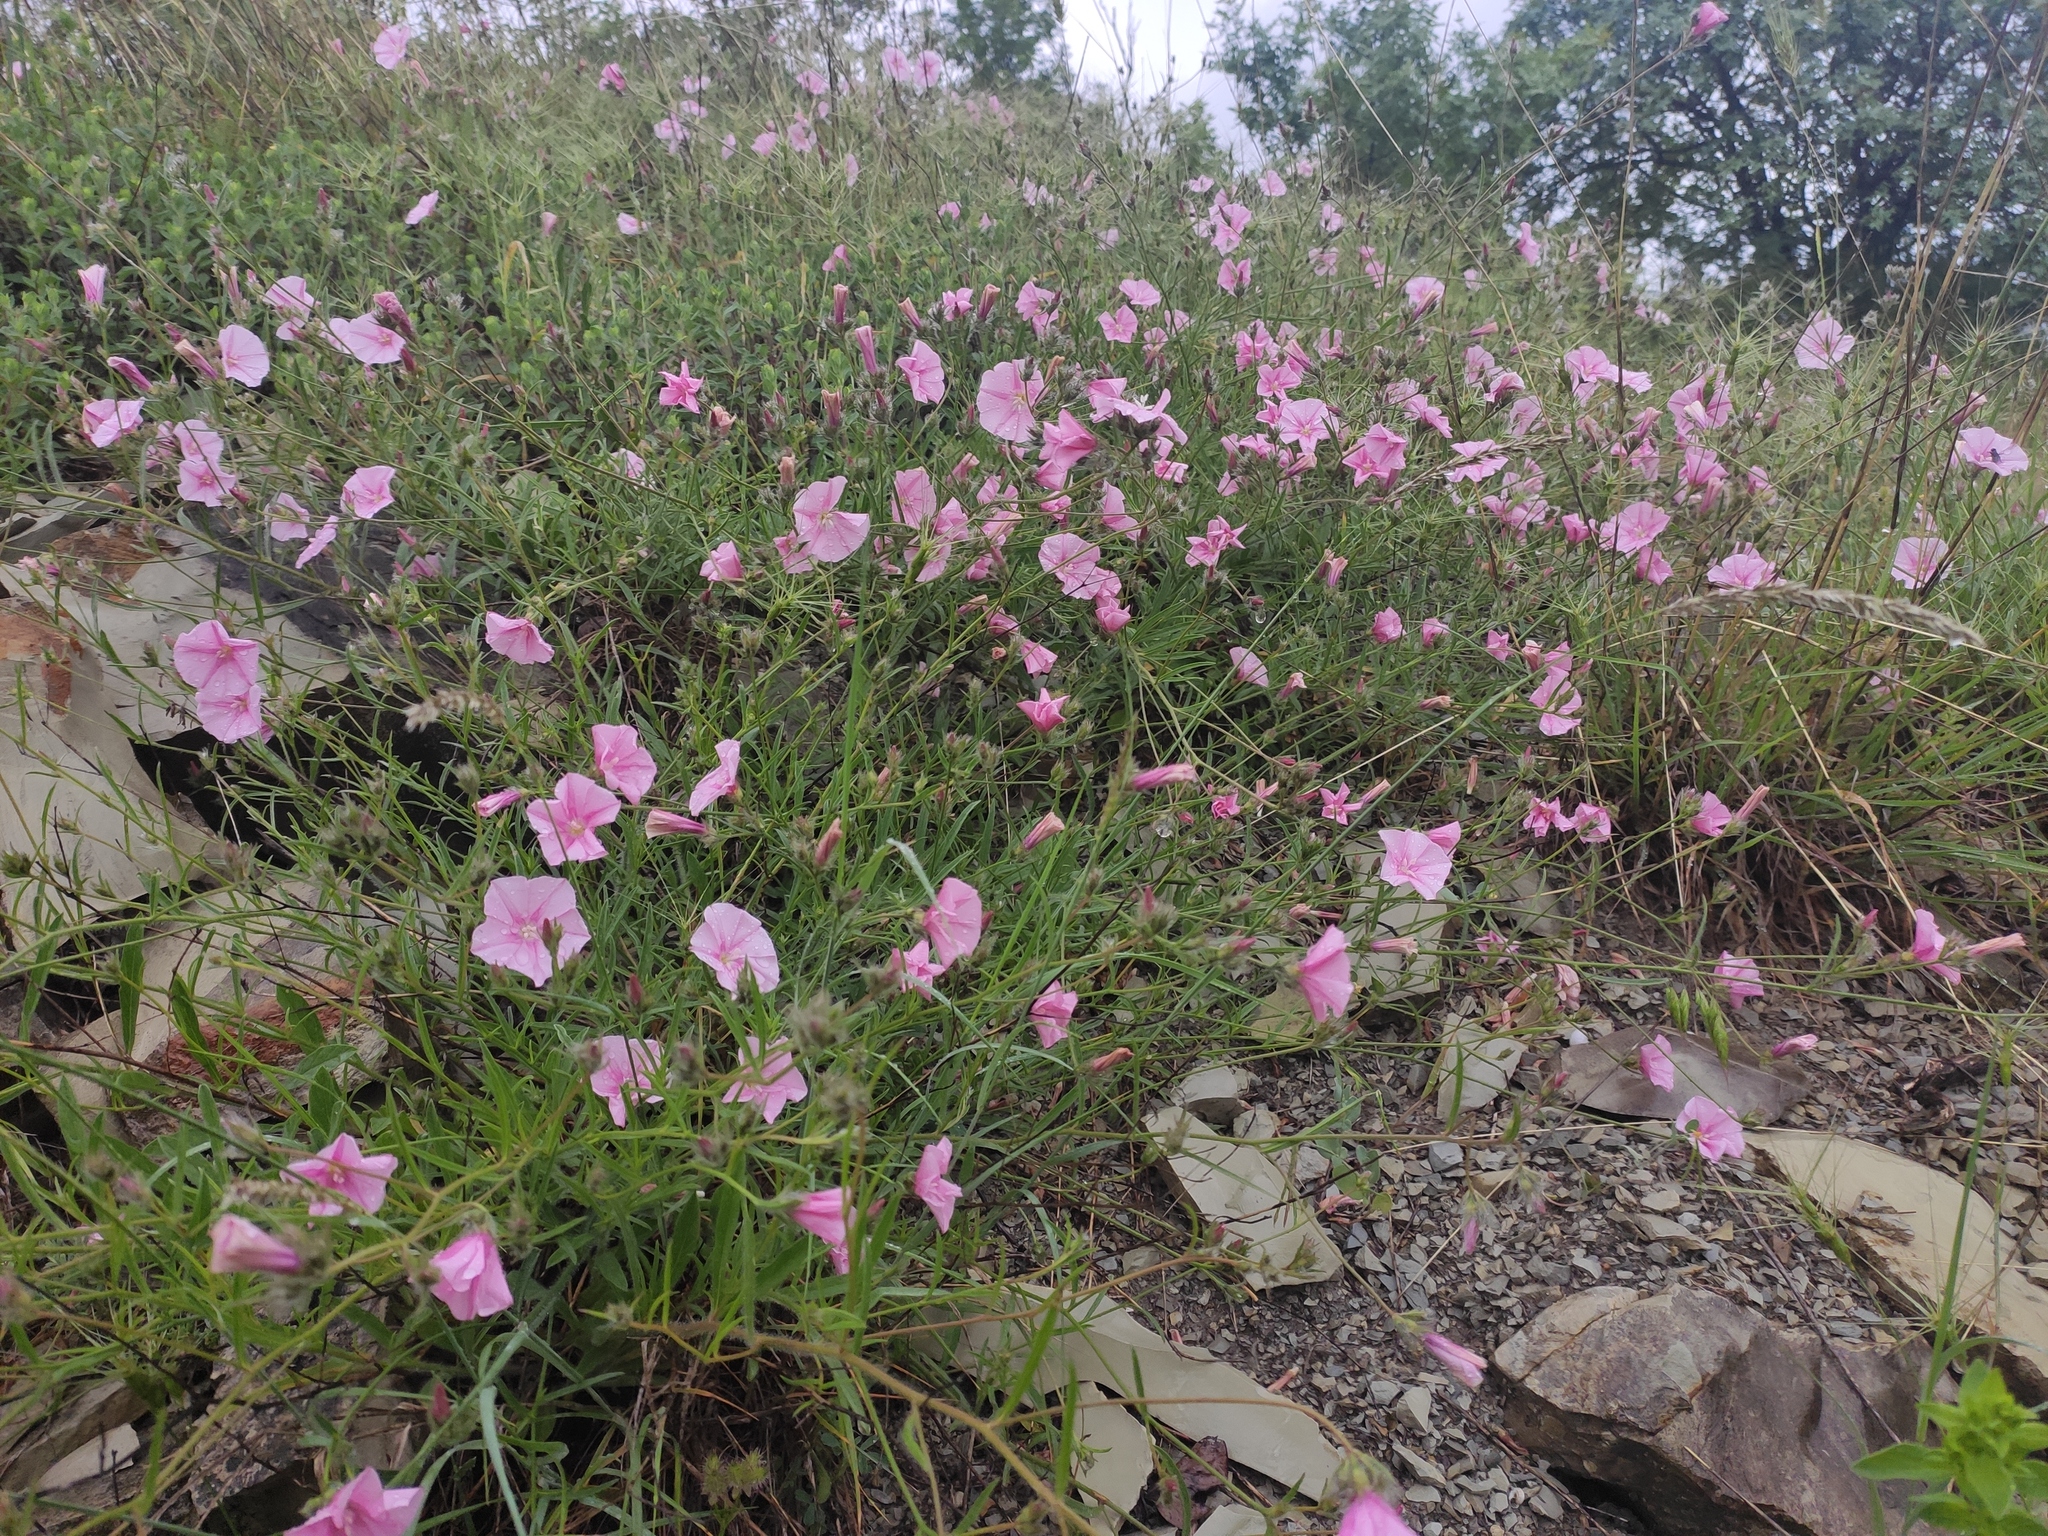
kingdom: Plantae
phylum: Tracheophyta
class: Magnoliopsida
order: Solanales
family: Convolvulaceae
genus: Convolvulus
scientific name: Convolvulus cantabrica
